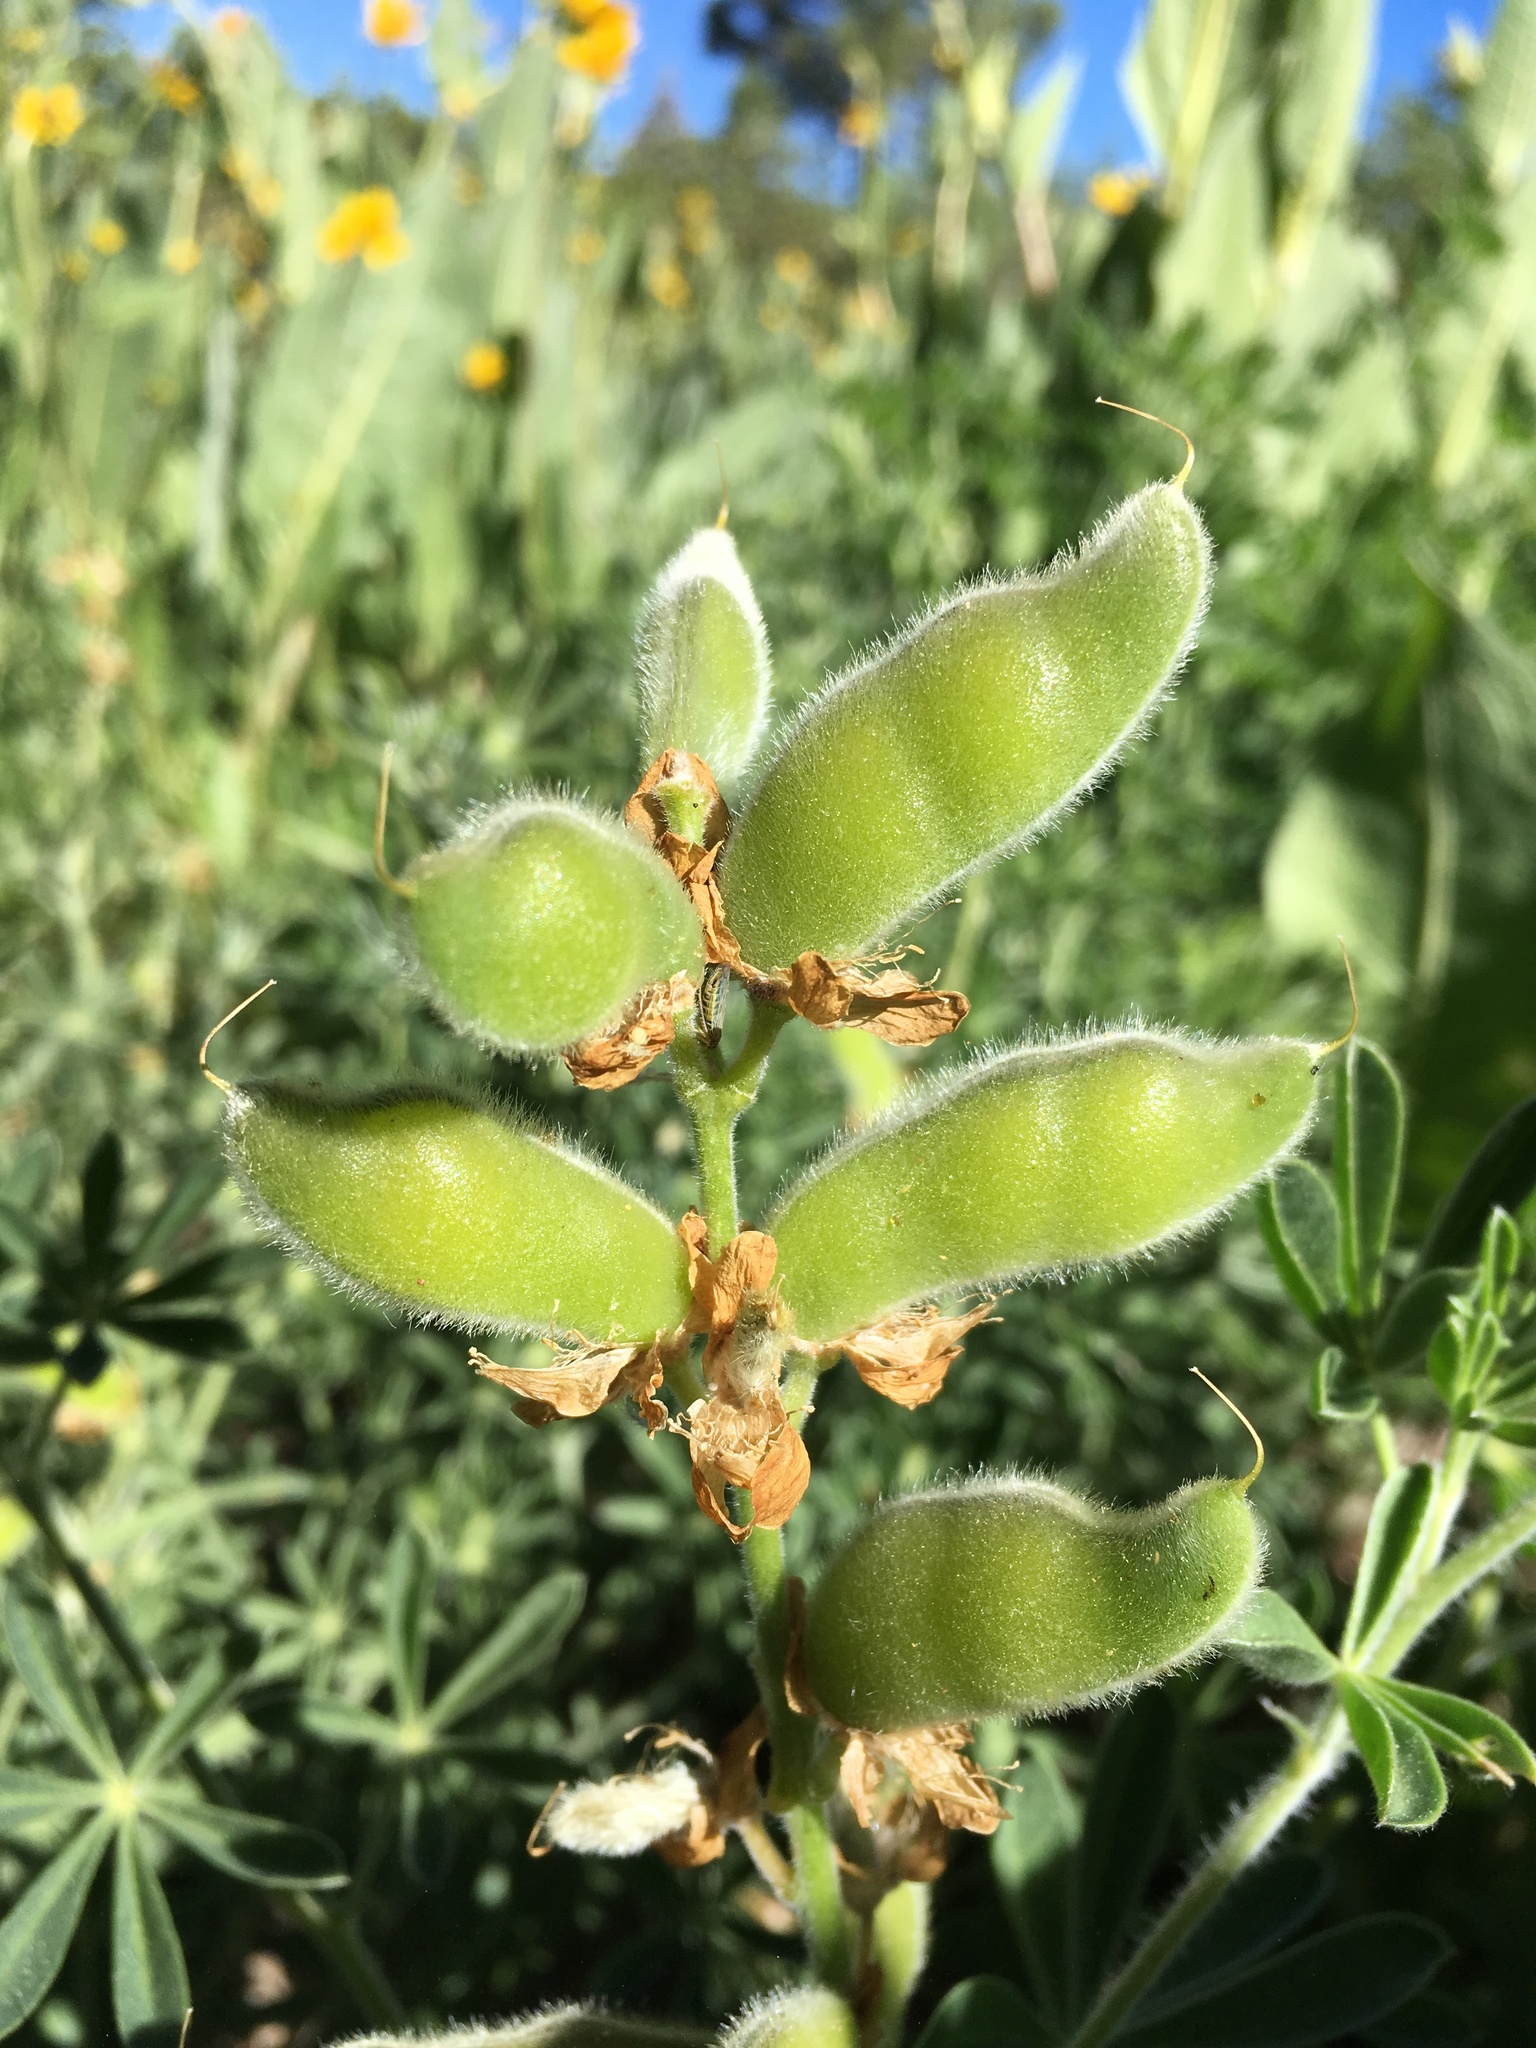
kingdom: Plantae
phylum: Tracheophyta
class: Magnoliopsida
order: Fabales
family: Fabaceae
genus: Lupinus
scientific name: Lupinus dalesiae
